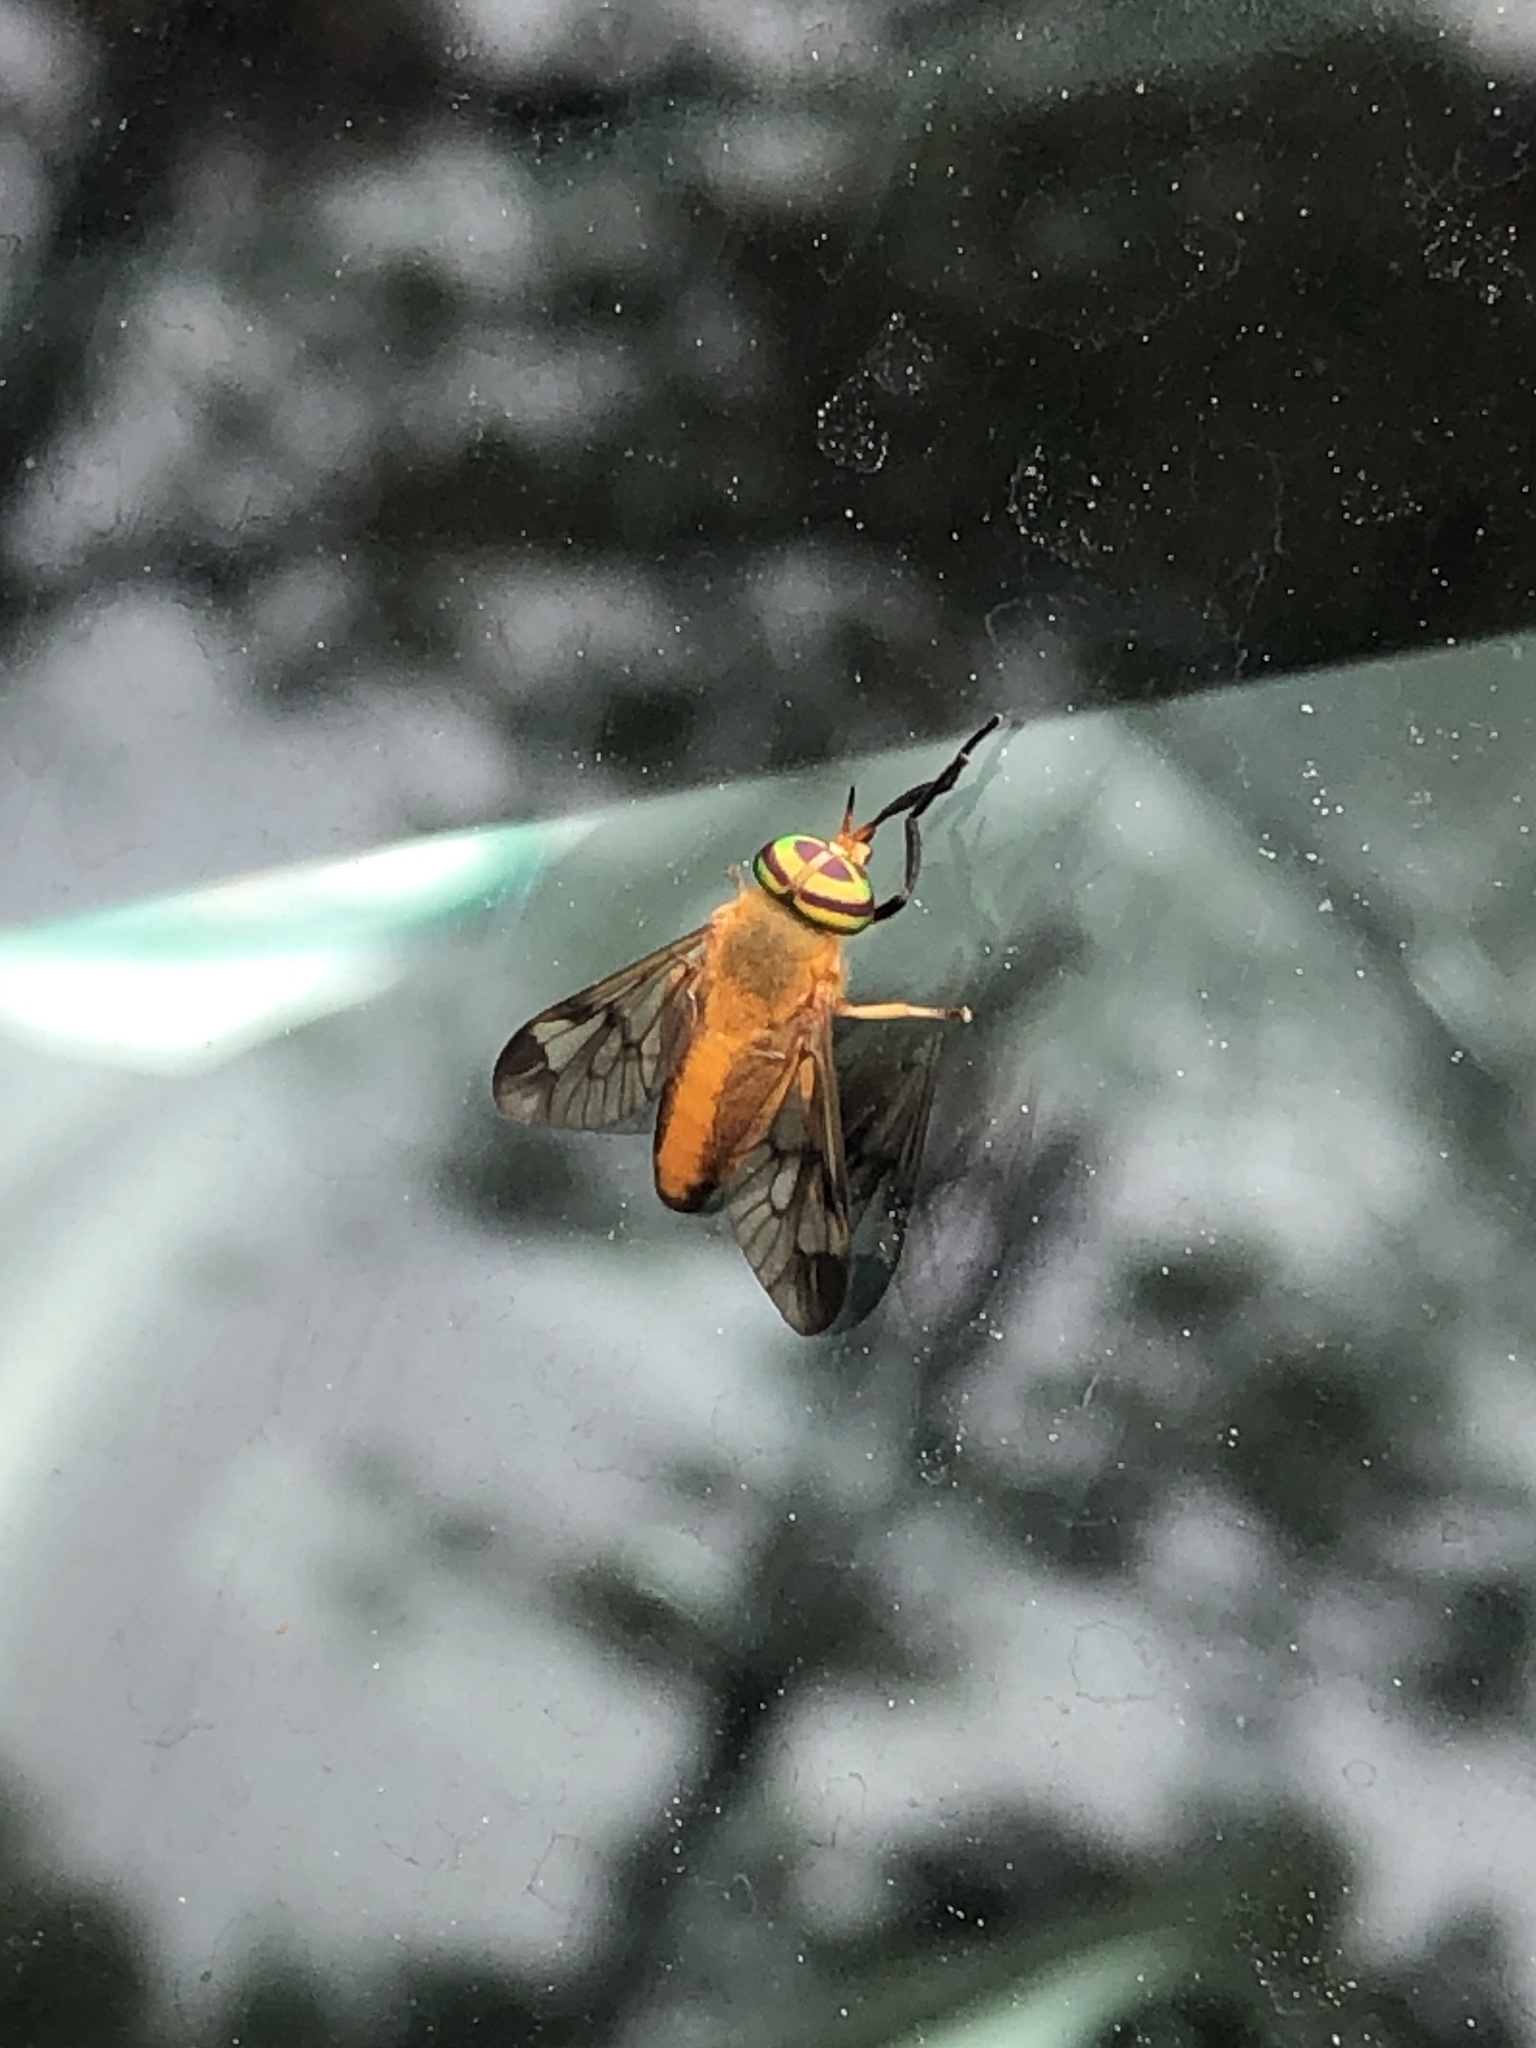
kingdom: Animalia
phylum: Arthropoda
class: Insecta
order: Diptera
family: Tabanidae
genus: Diachlorus
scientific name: Diachlorus ferrugatus
